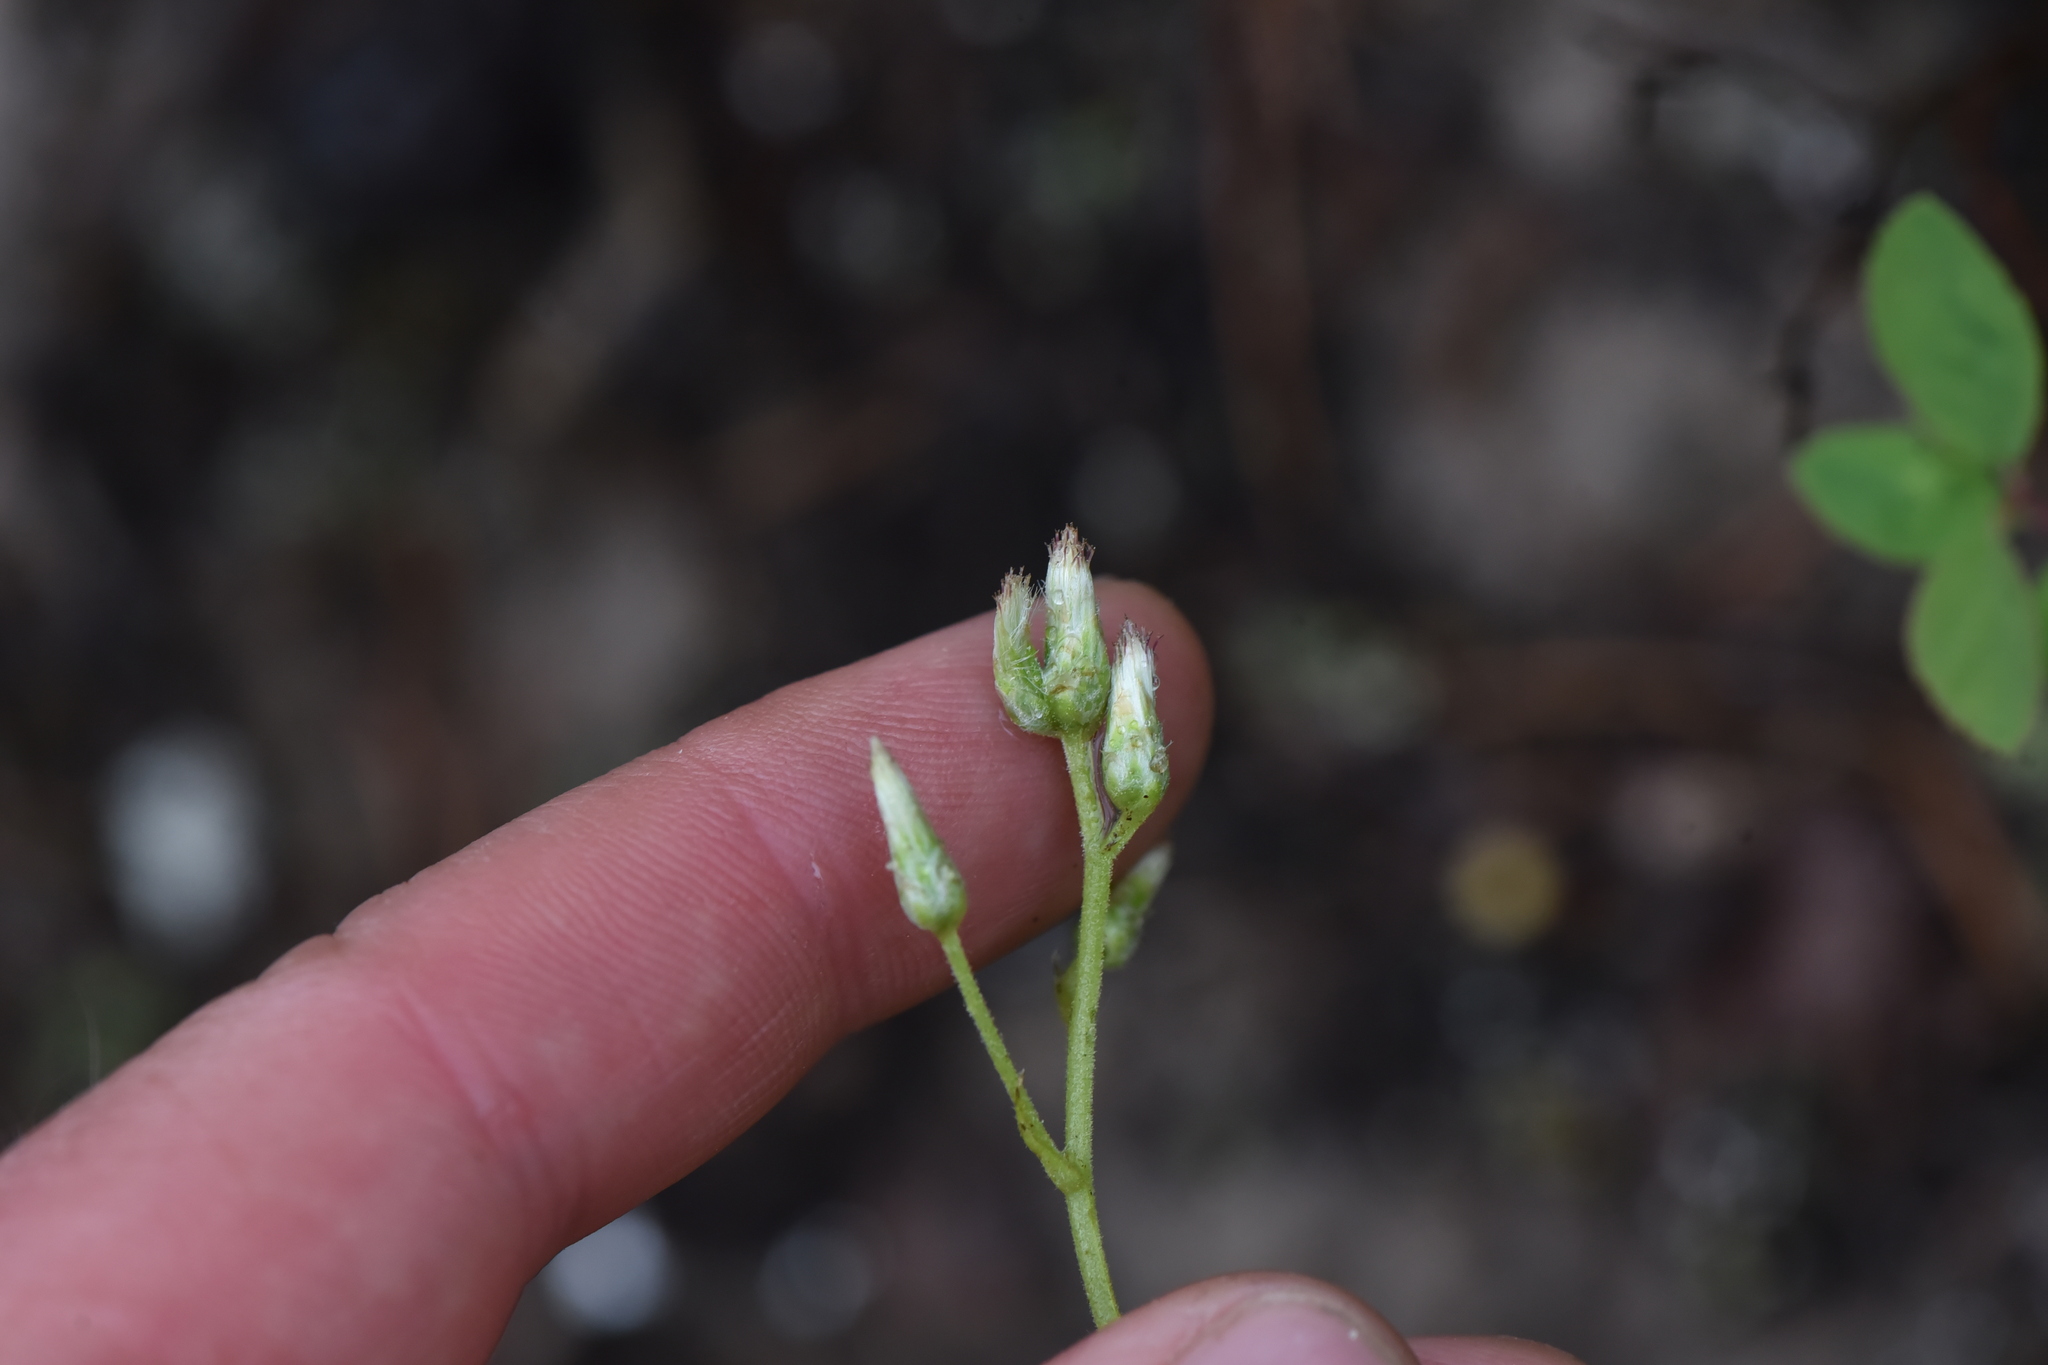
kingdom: Plantae
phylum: Tracheophyta
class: Magnoliopsida
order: Asterales
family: Asteraceae
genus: Antennaria
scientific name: Antennaria racemosa
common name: Racemose pussytoes
